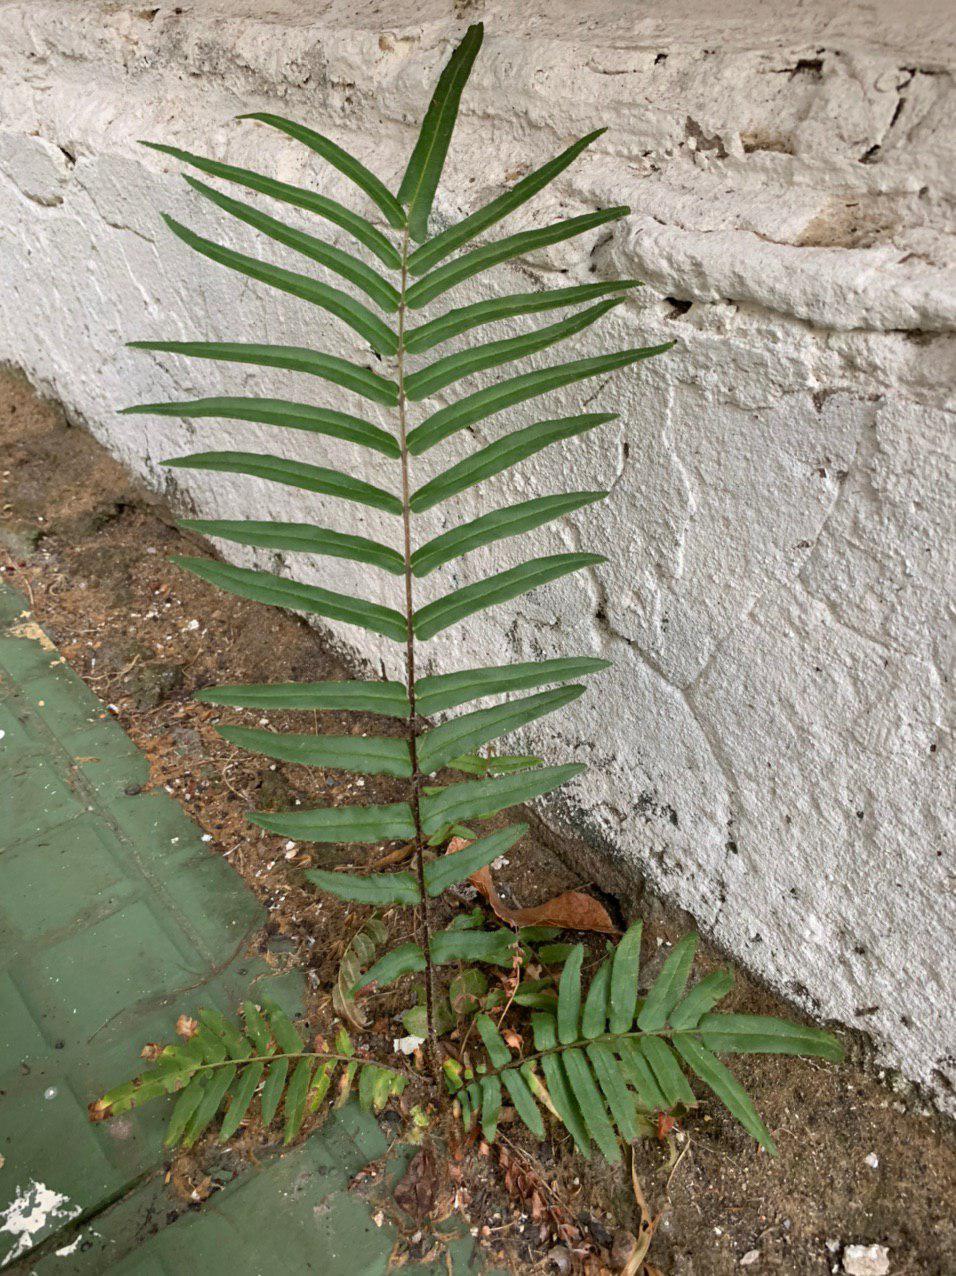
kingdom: Plantae
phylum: Tracheophyta
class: Polypodiopsida
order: Polypodiales
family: Pteridaceae
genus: Pteris
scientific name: Pteris vittata
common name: Ladder brake
